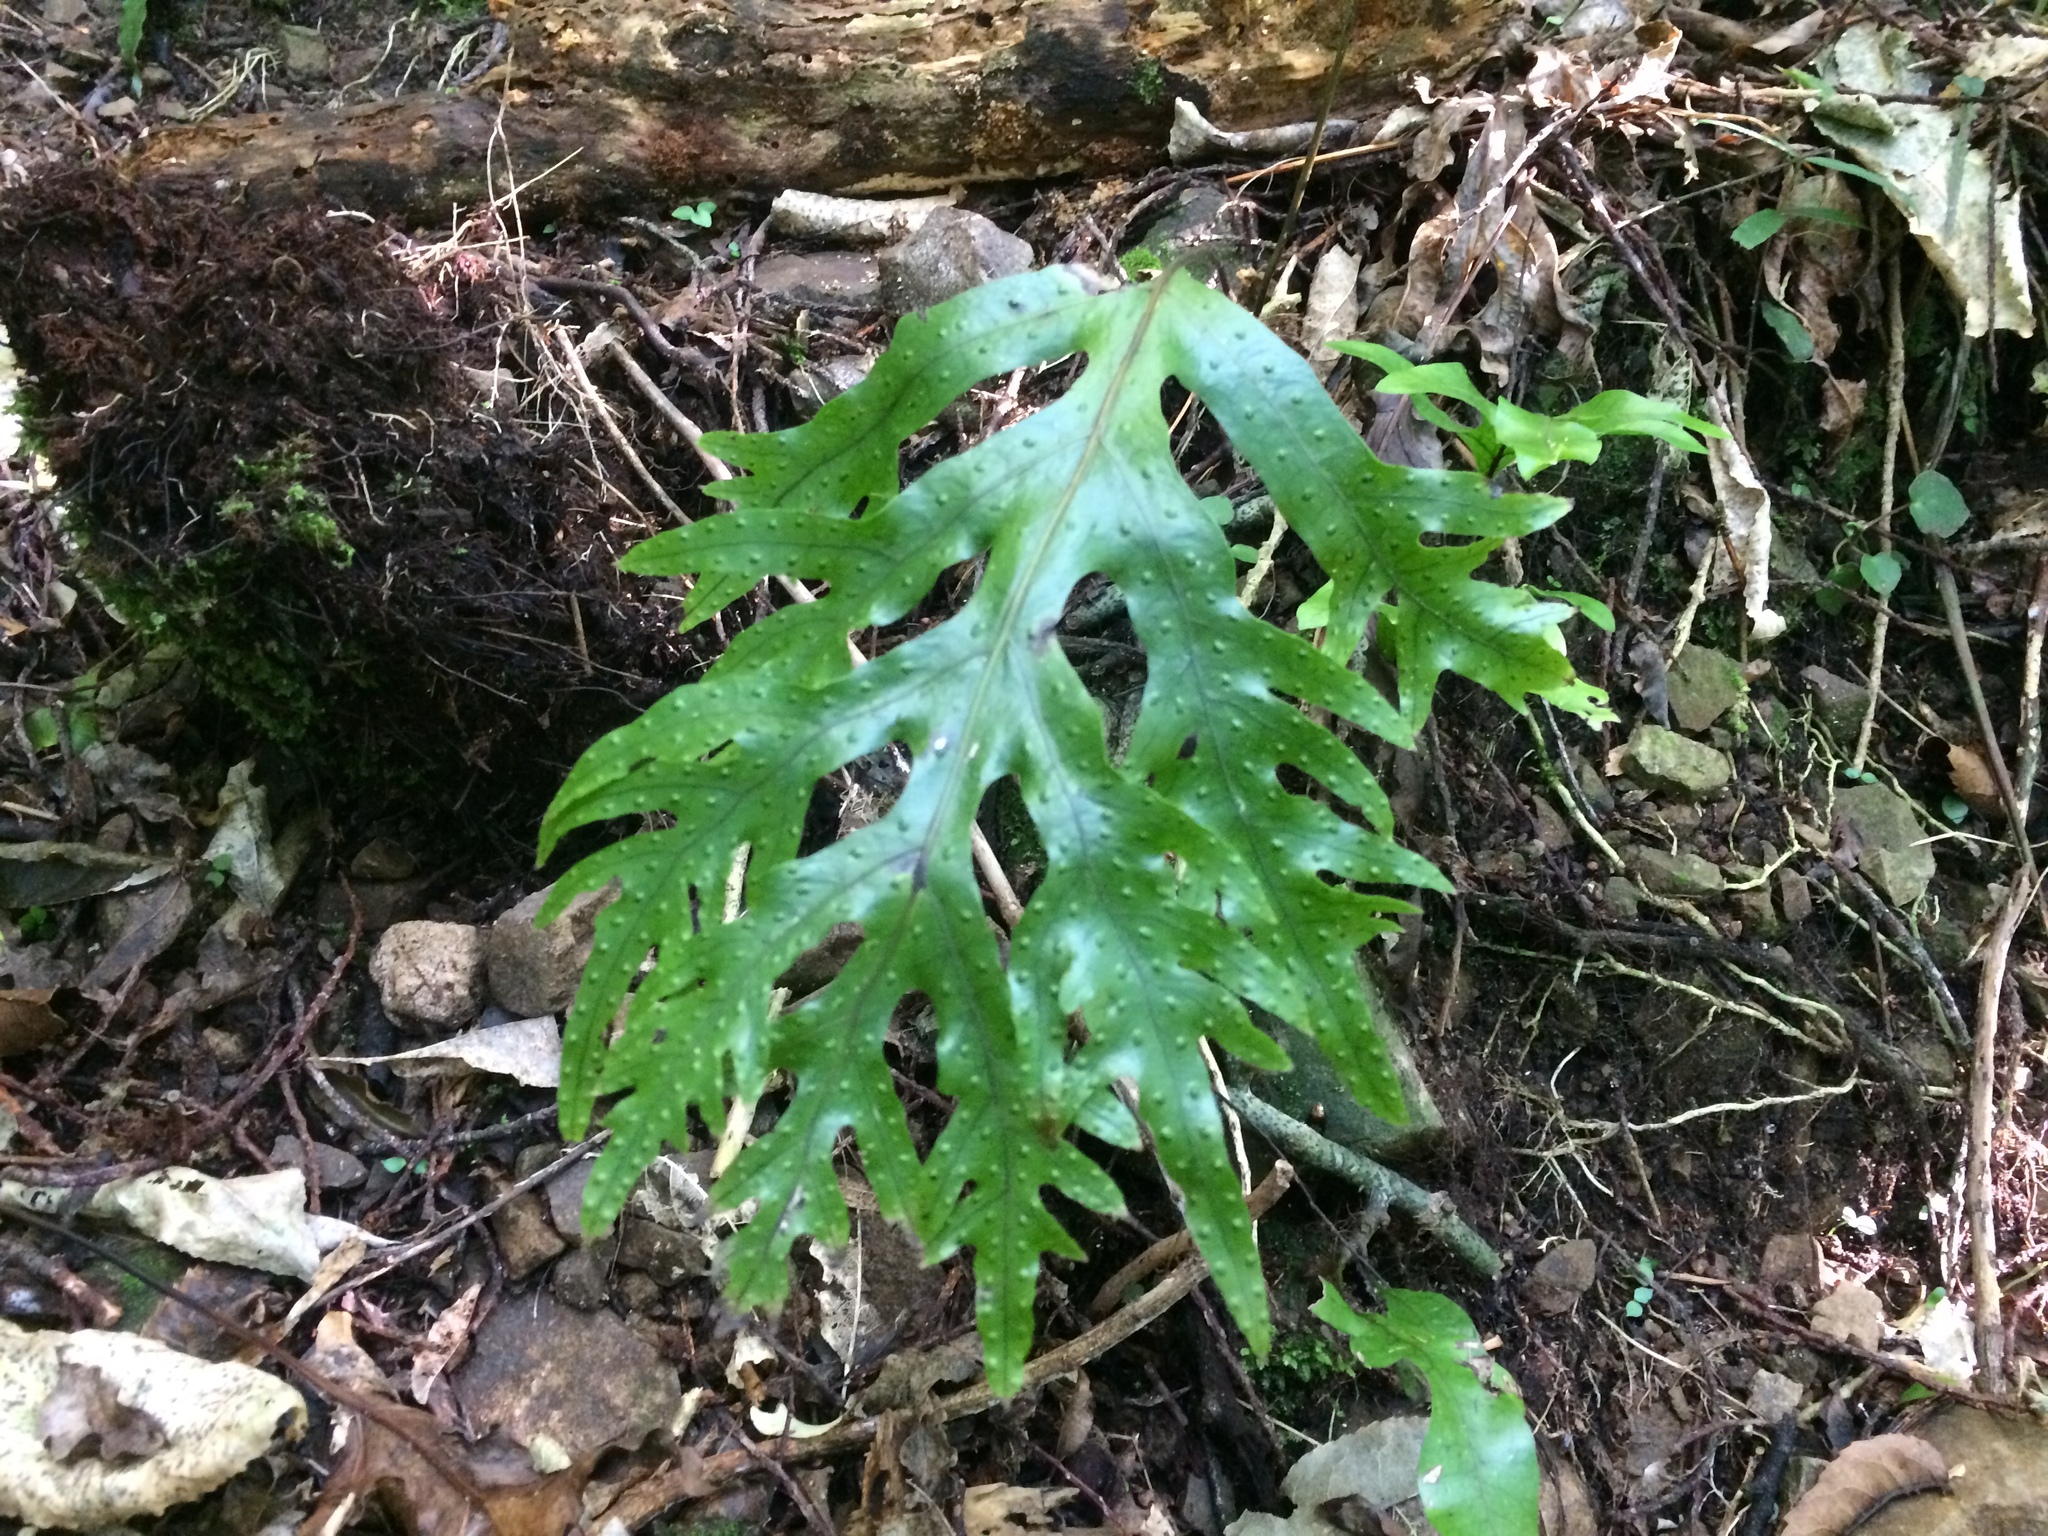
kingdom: Plantae
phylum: Tracheophyta
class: Polypodiopsida
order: Polypodiales
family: Polypodiaceae
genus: Lecanopteris
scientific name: Lecanopteris pustulata
